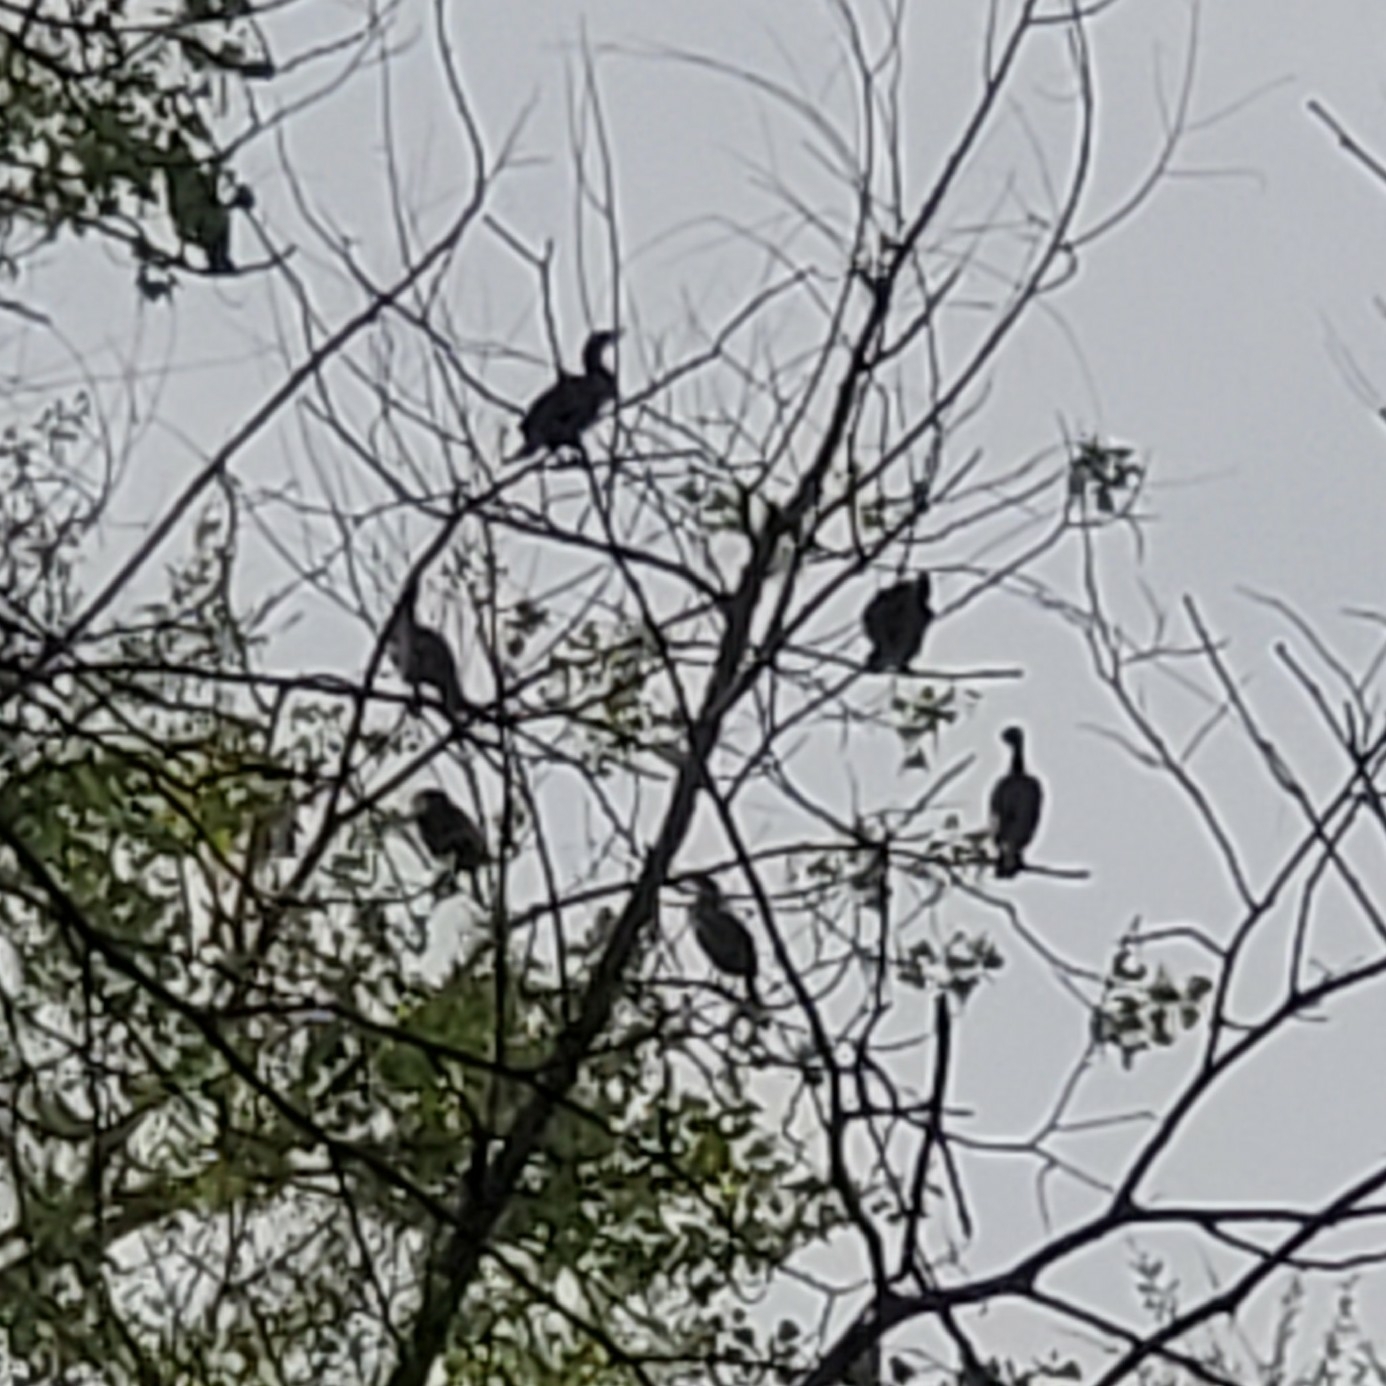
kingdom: Animalia
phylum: Chordata
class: Aves
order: Suliformes
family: Phalacrocoracidae
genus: Phalacrocorax
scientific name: Phalacrocorax auritus
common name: Double-crested cormorant
